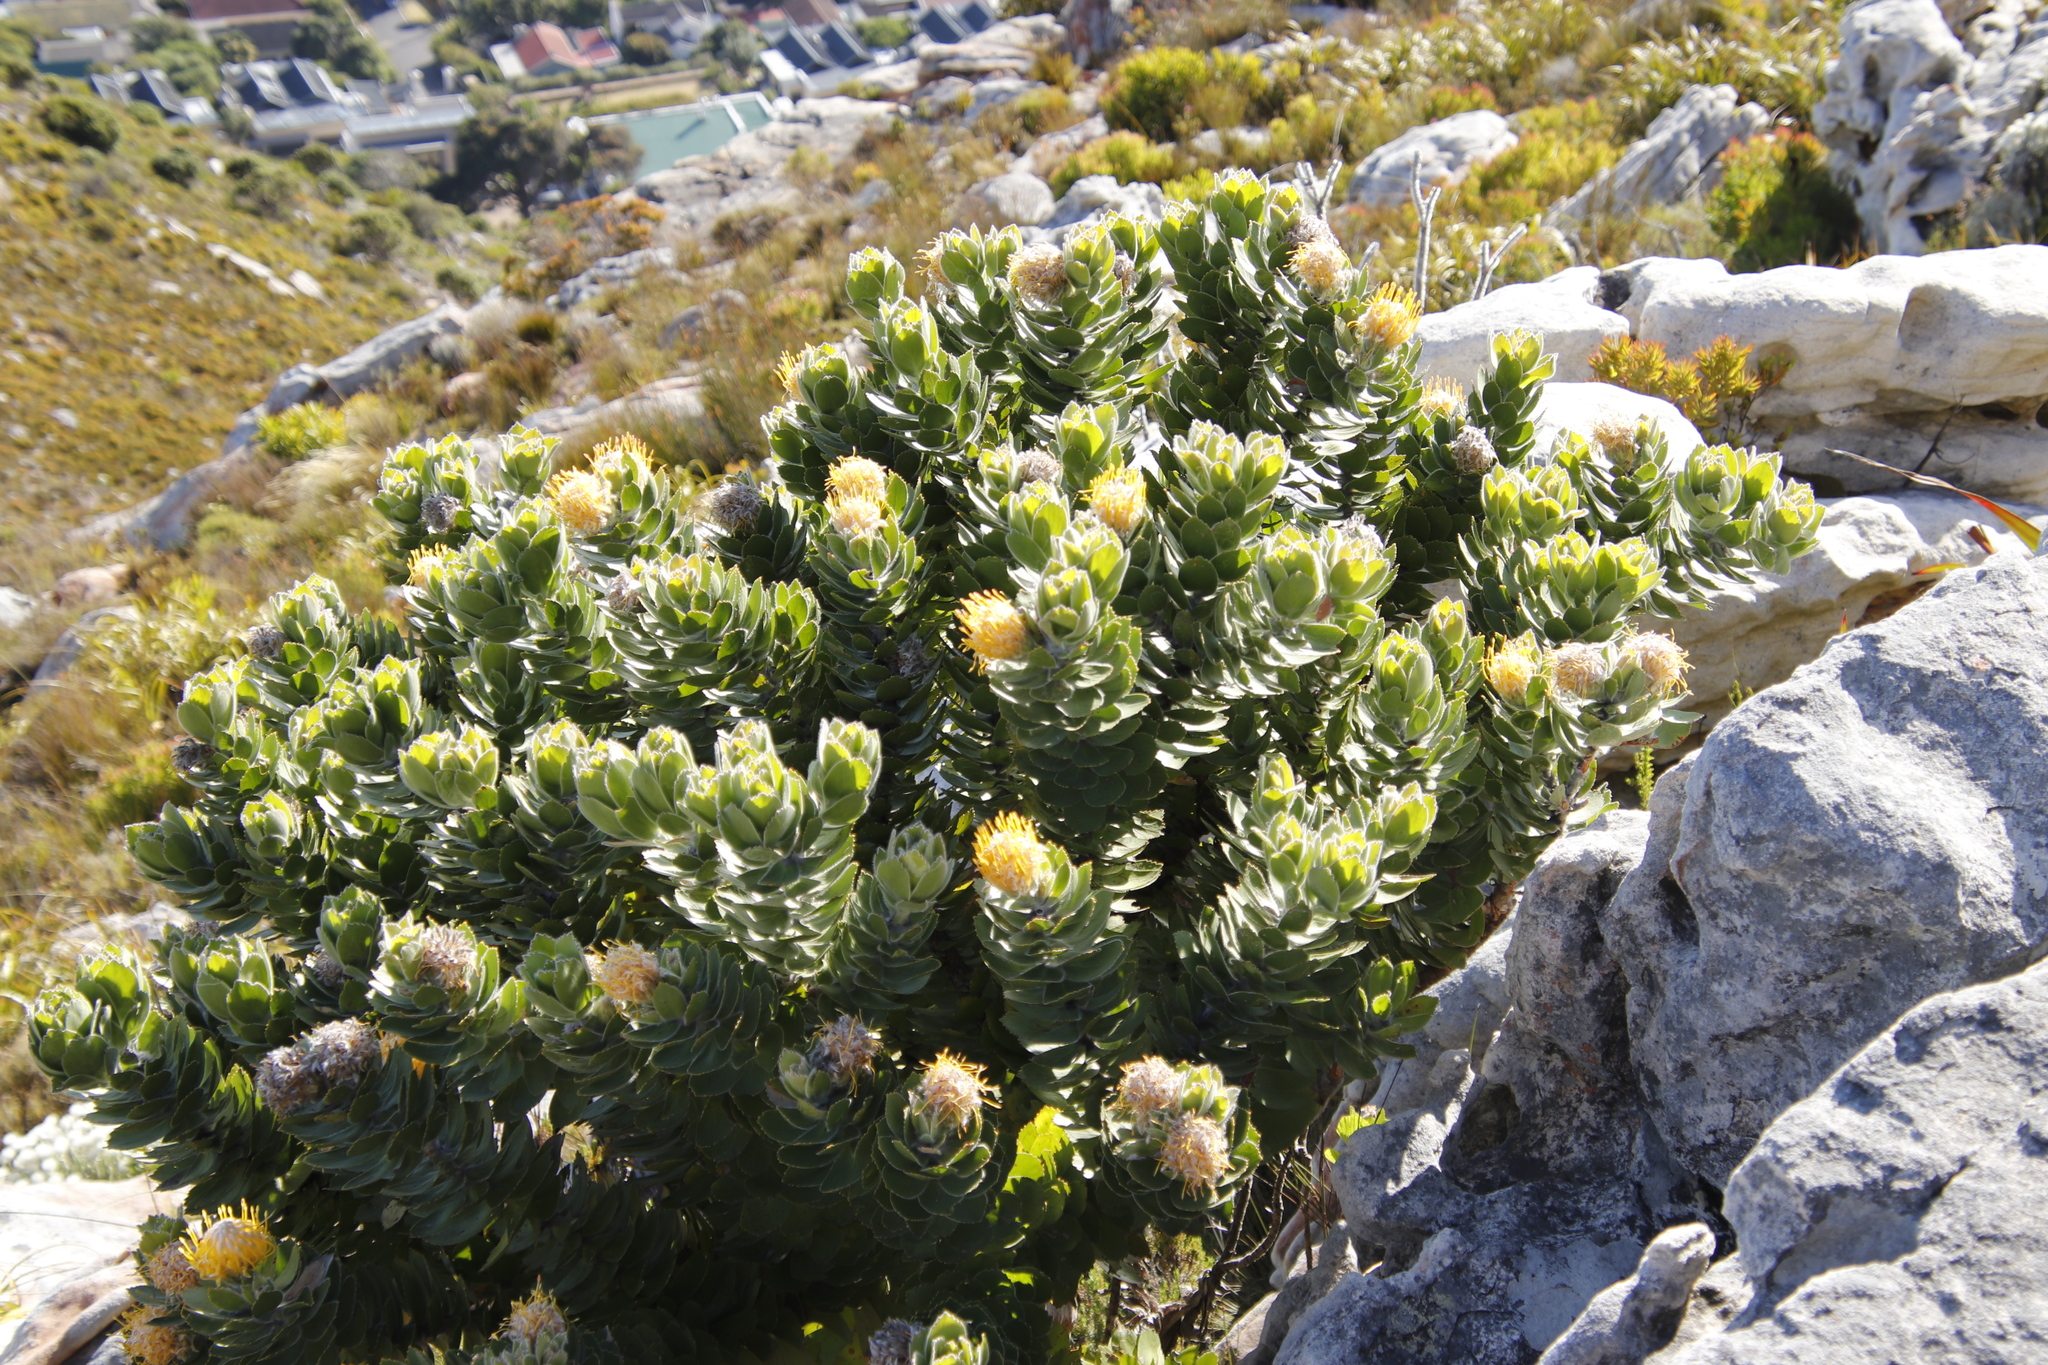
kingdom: Plantae
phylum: Tracheophyta
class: Magnoliopsida
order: Proteales
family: Proteaceae
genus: Leucospermum
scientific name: Leucospermum conocarpodendron
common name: Tree pincushion
